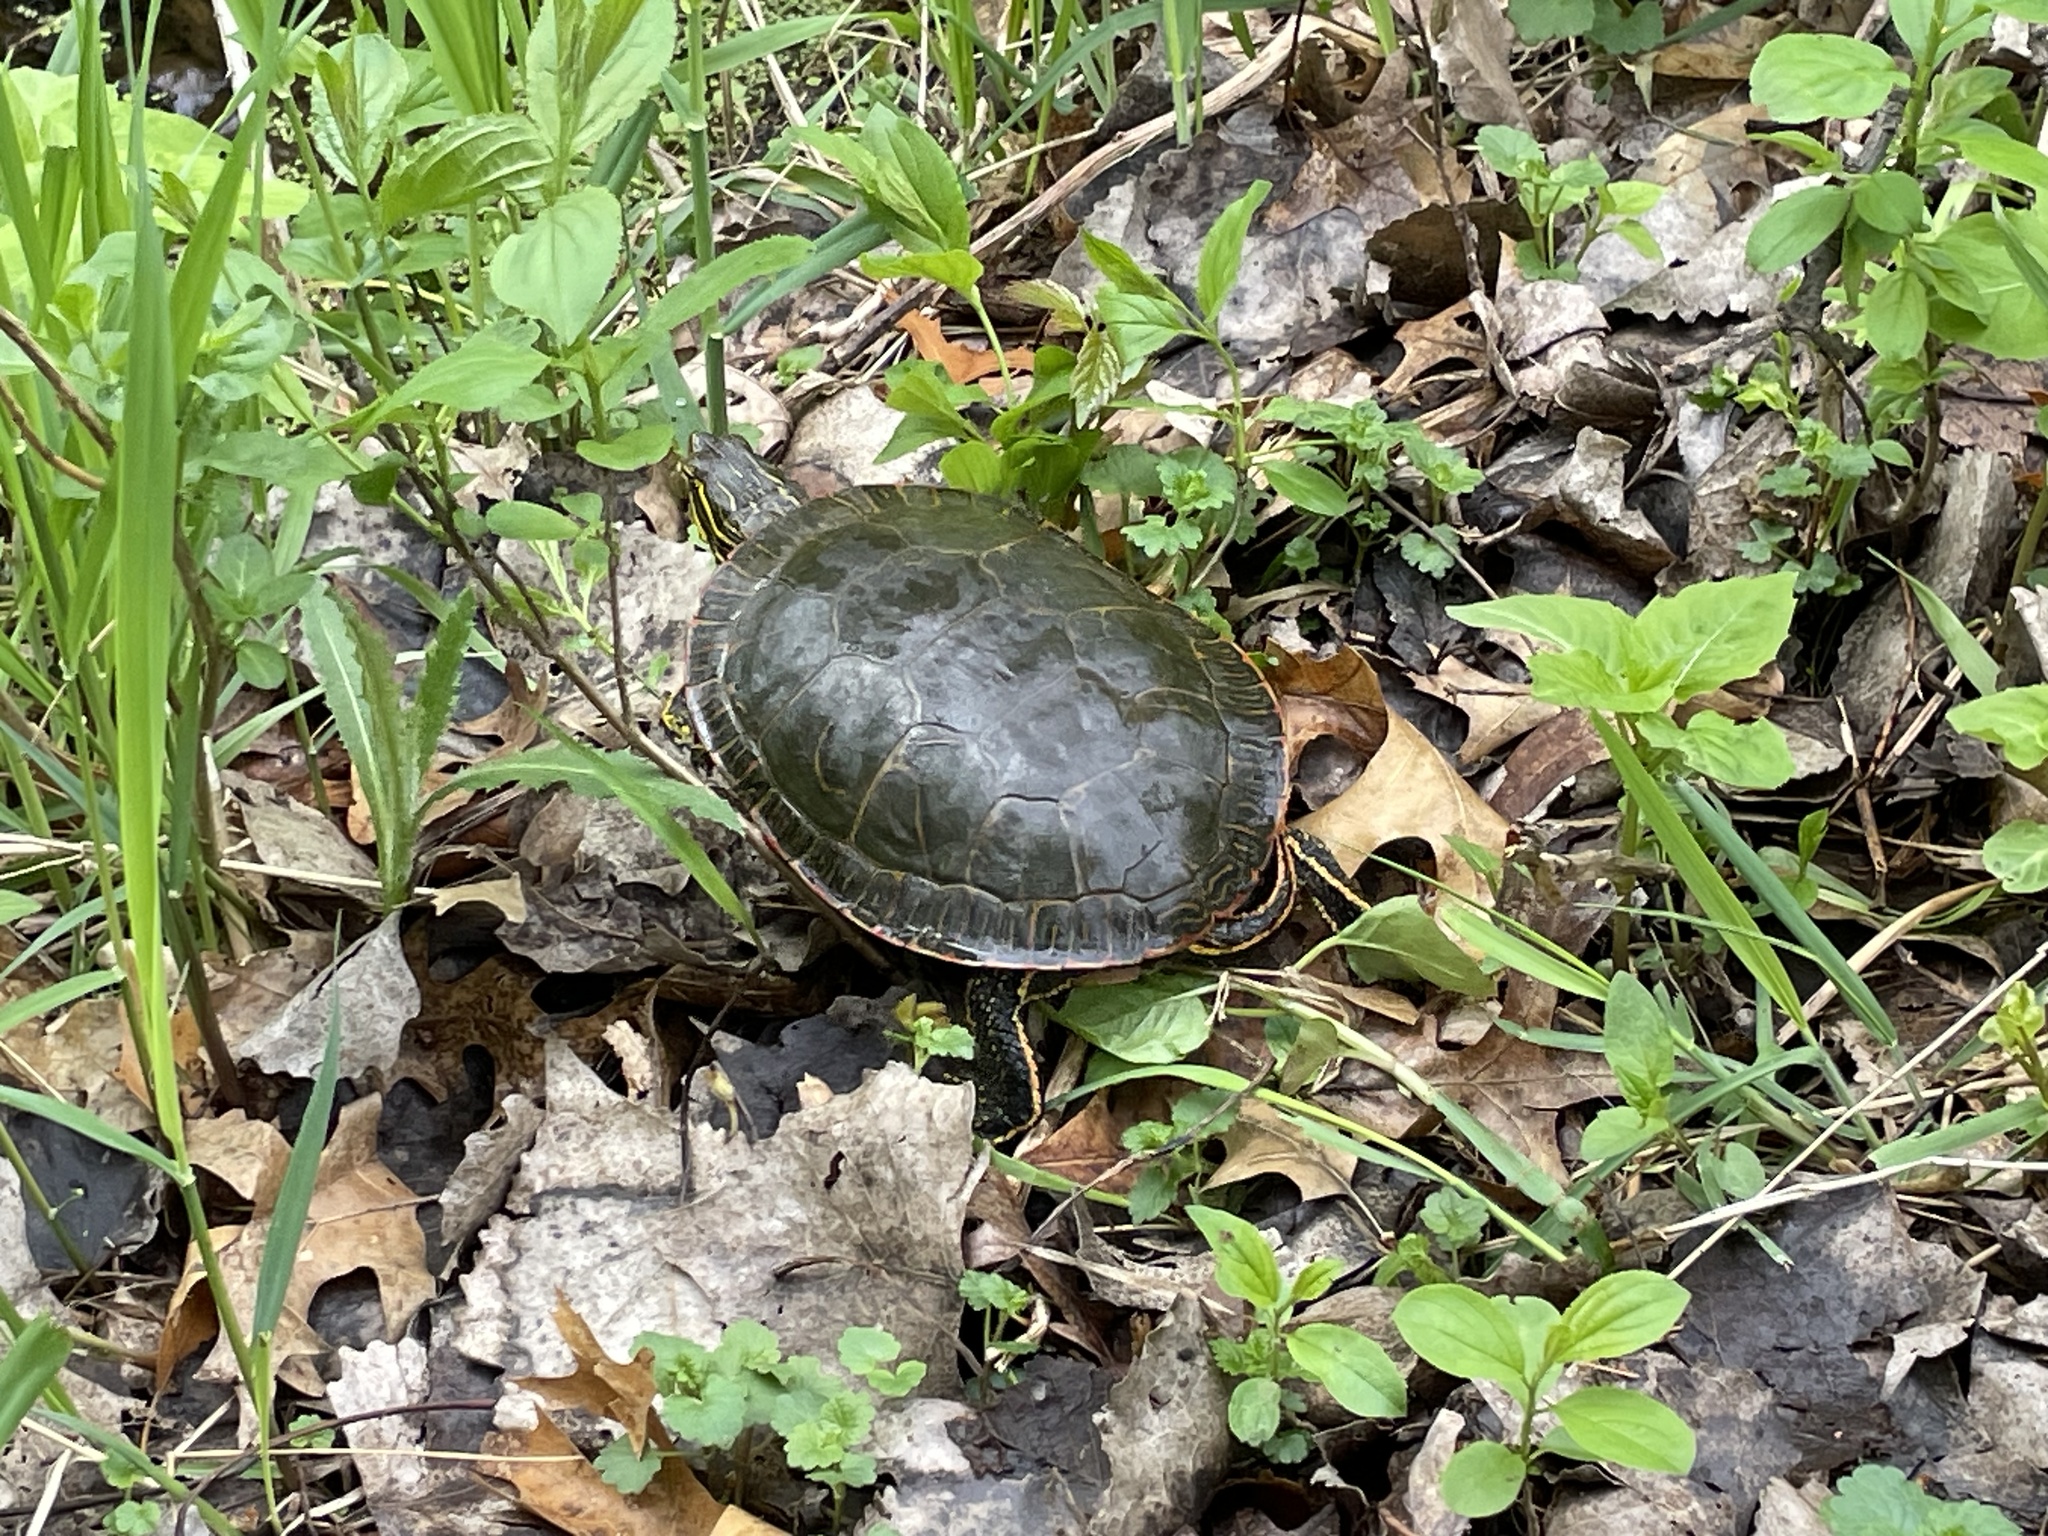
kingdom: Animalia
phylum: Chordata
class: Testudines
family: Emydidae
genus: Chrysemys
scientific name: Chrysemys picta
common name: Painted turtle
